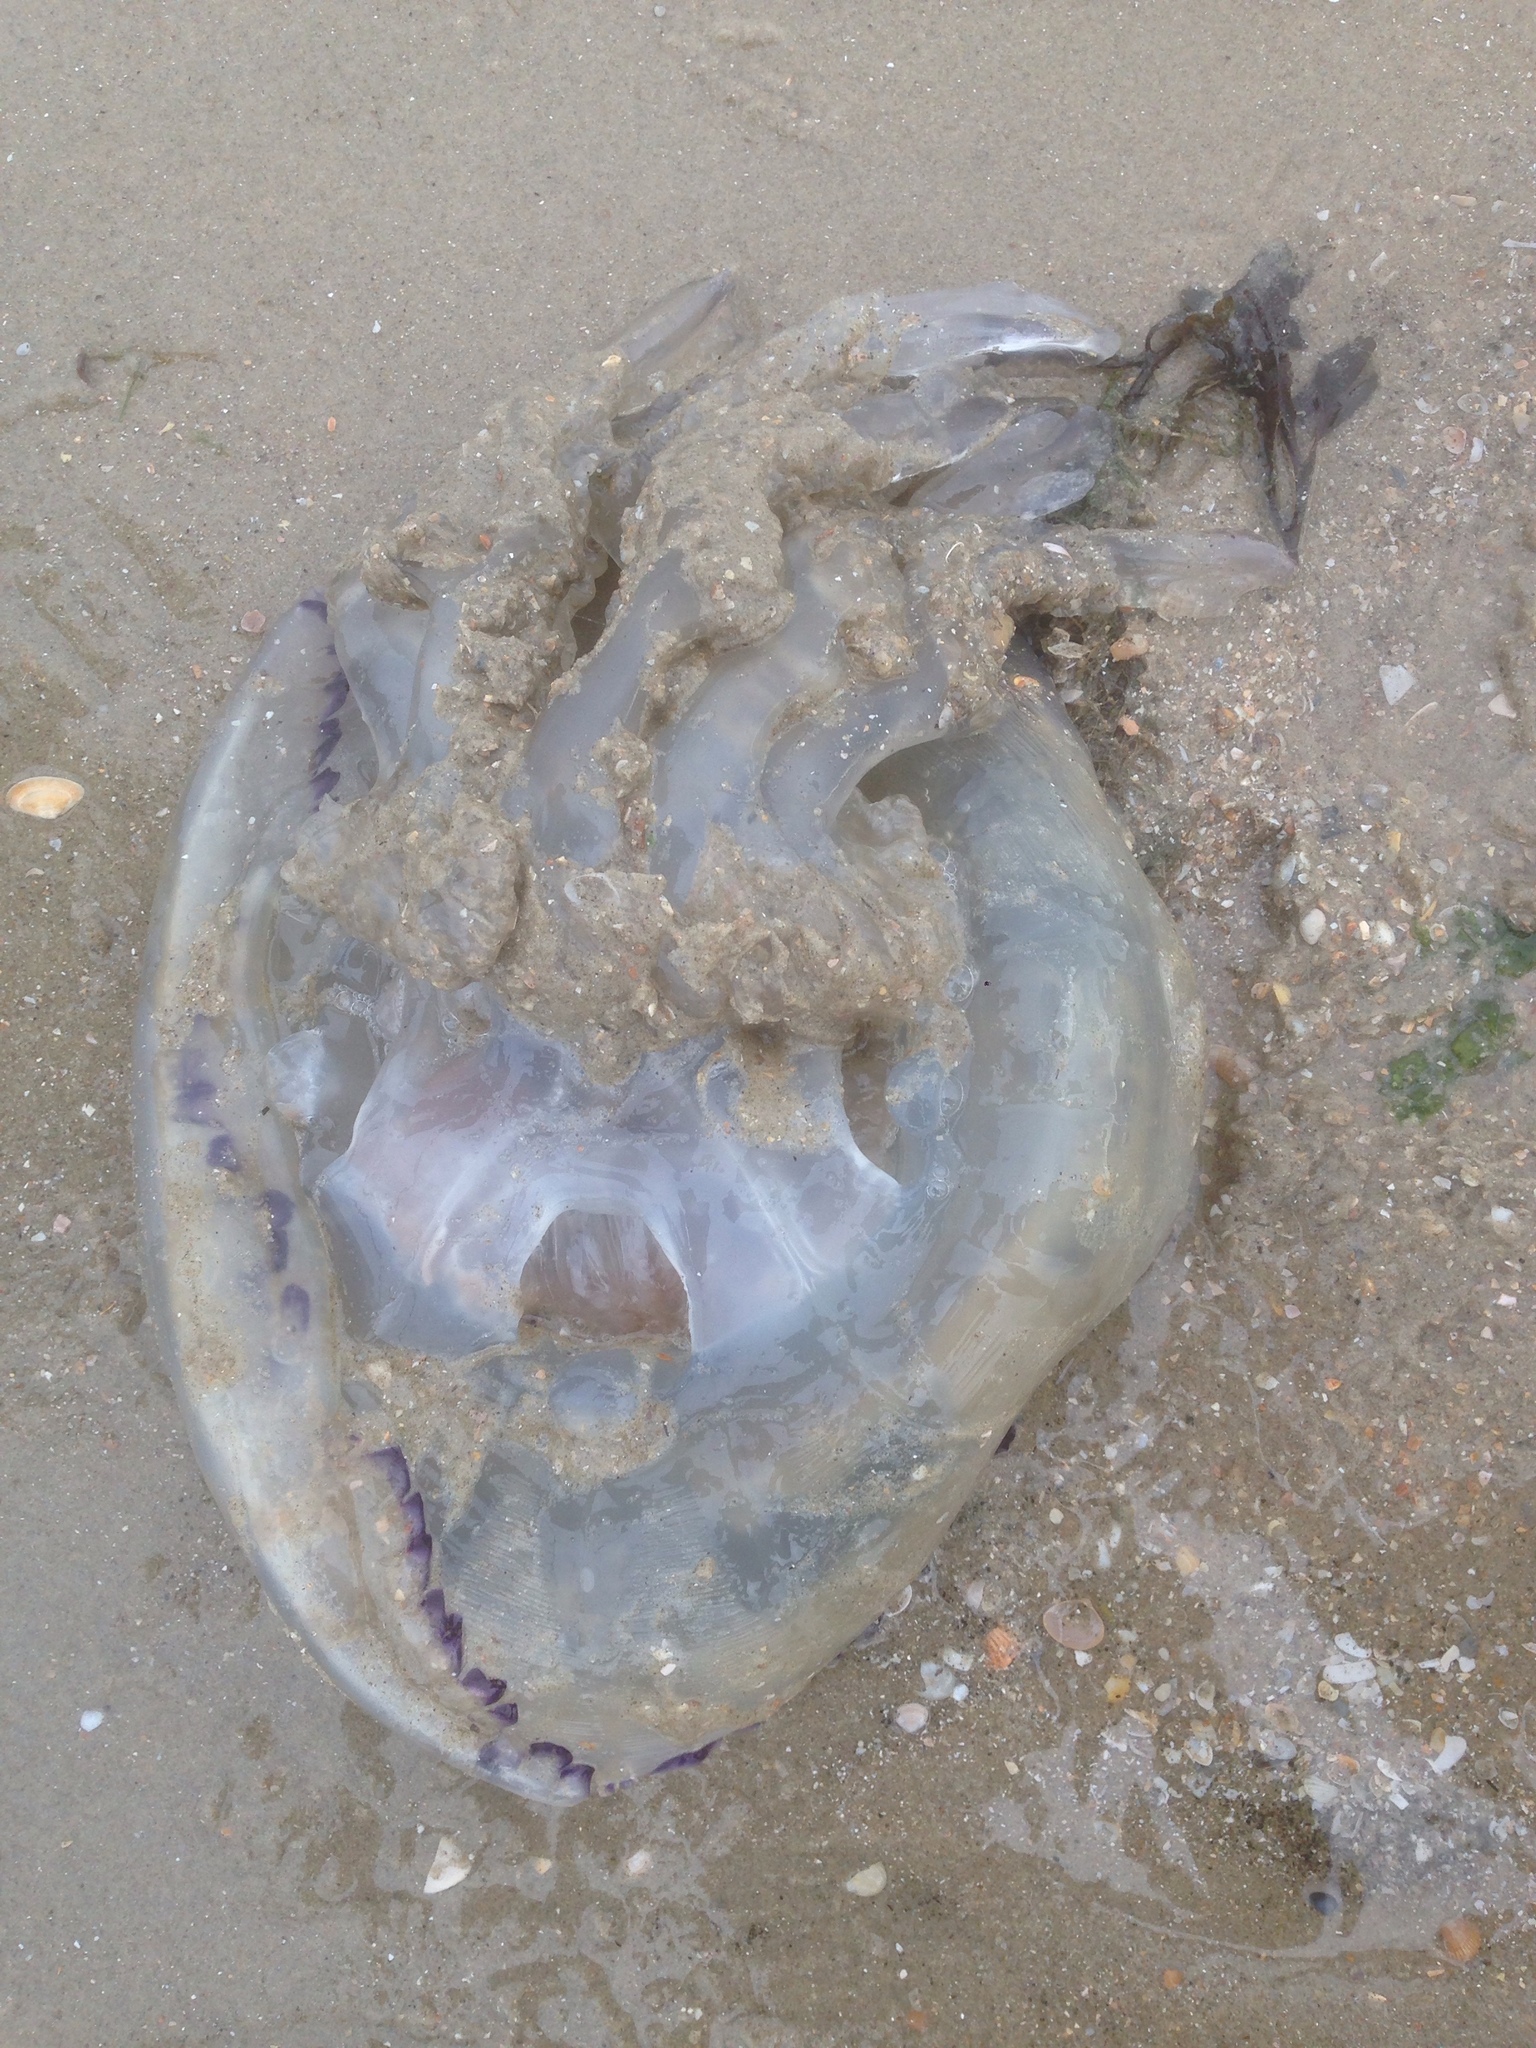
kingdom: Animalia
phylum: Cnidaria
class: Scyphozoa
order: Rhizostomeae
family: Rhizostomatidae
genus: Rhizostoma
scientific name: Rhizostoma octopus
